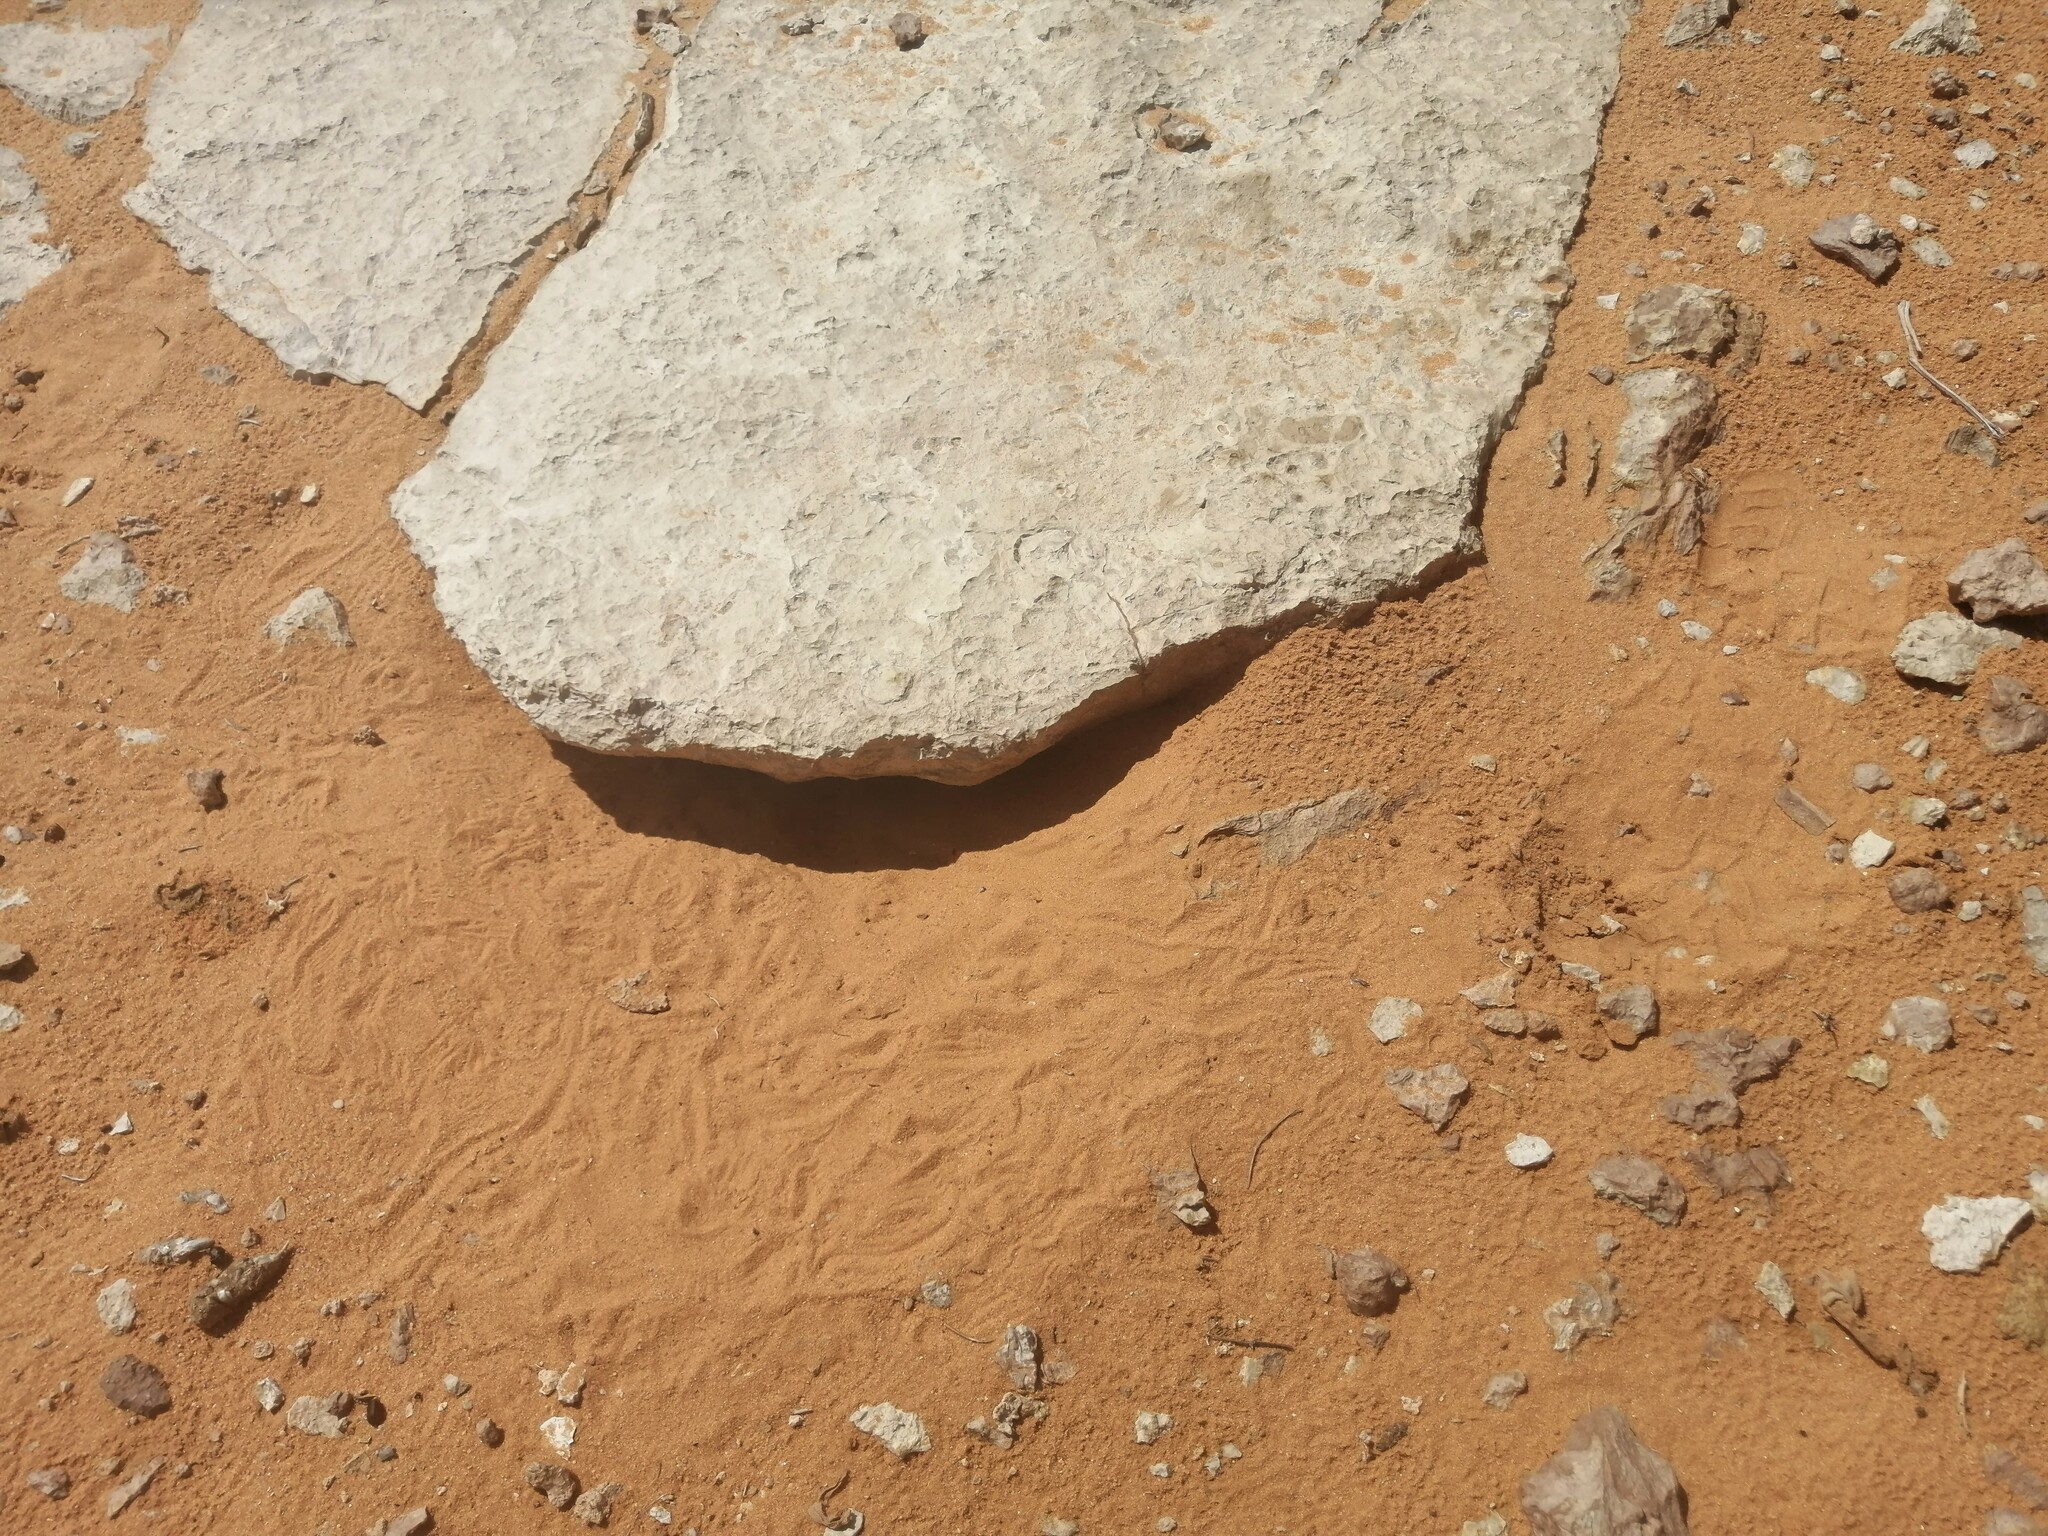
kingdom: Animalia
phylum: Chordata
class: Squamata
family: Agamidae
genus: Uromastyx
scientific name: Uromastyx aegyptia
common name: Egyptian mastigure
